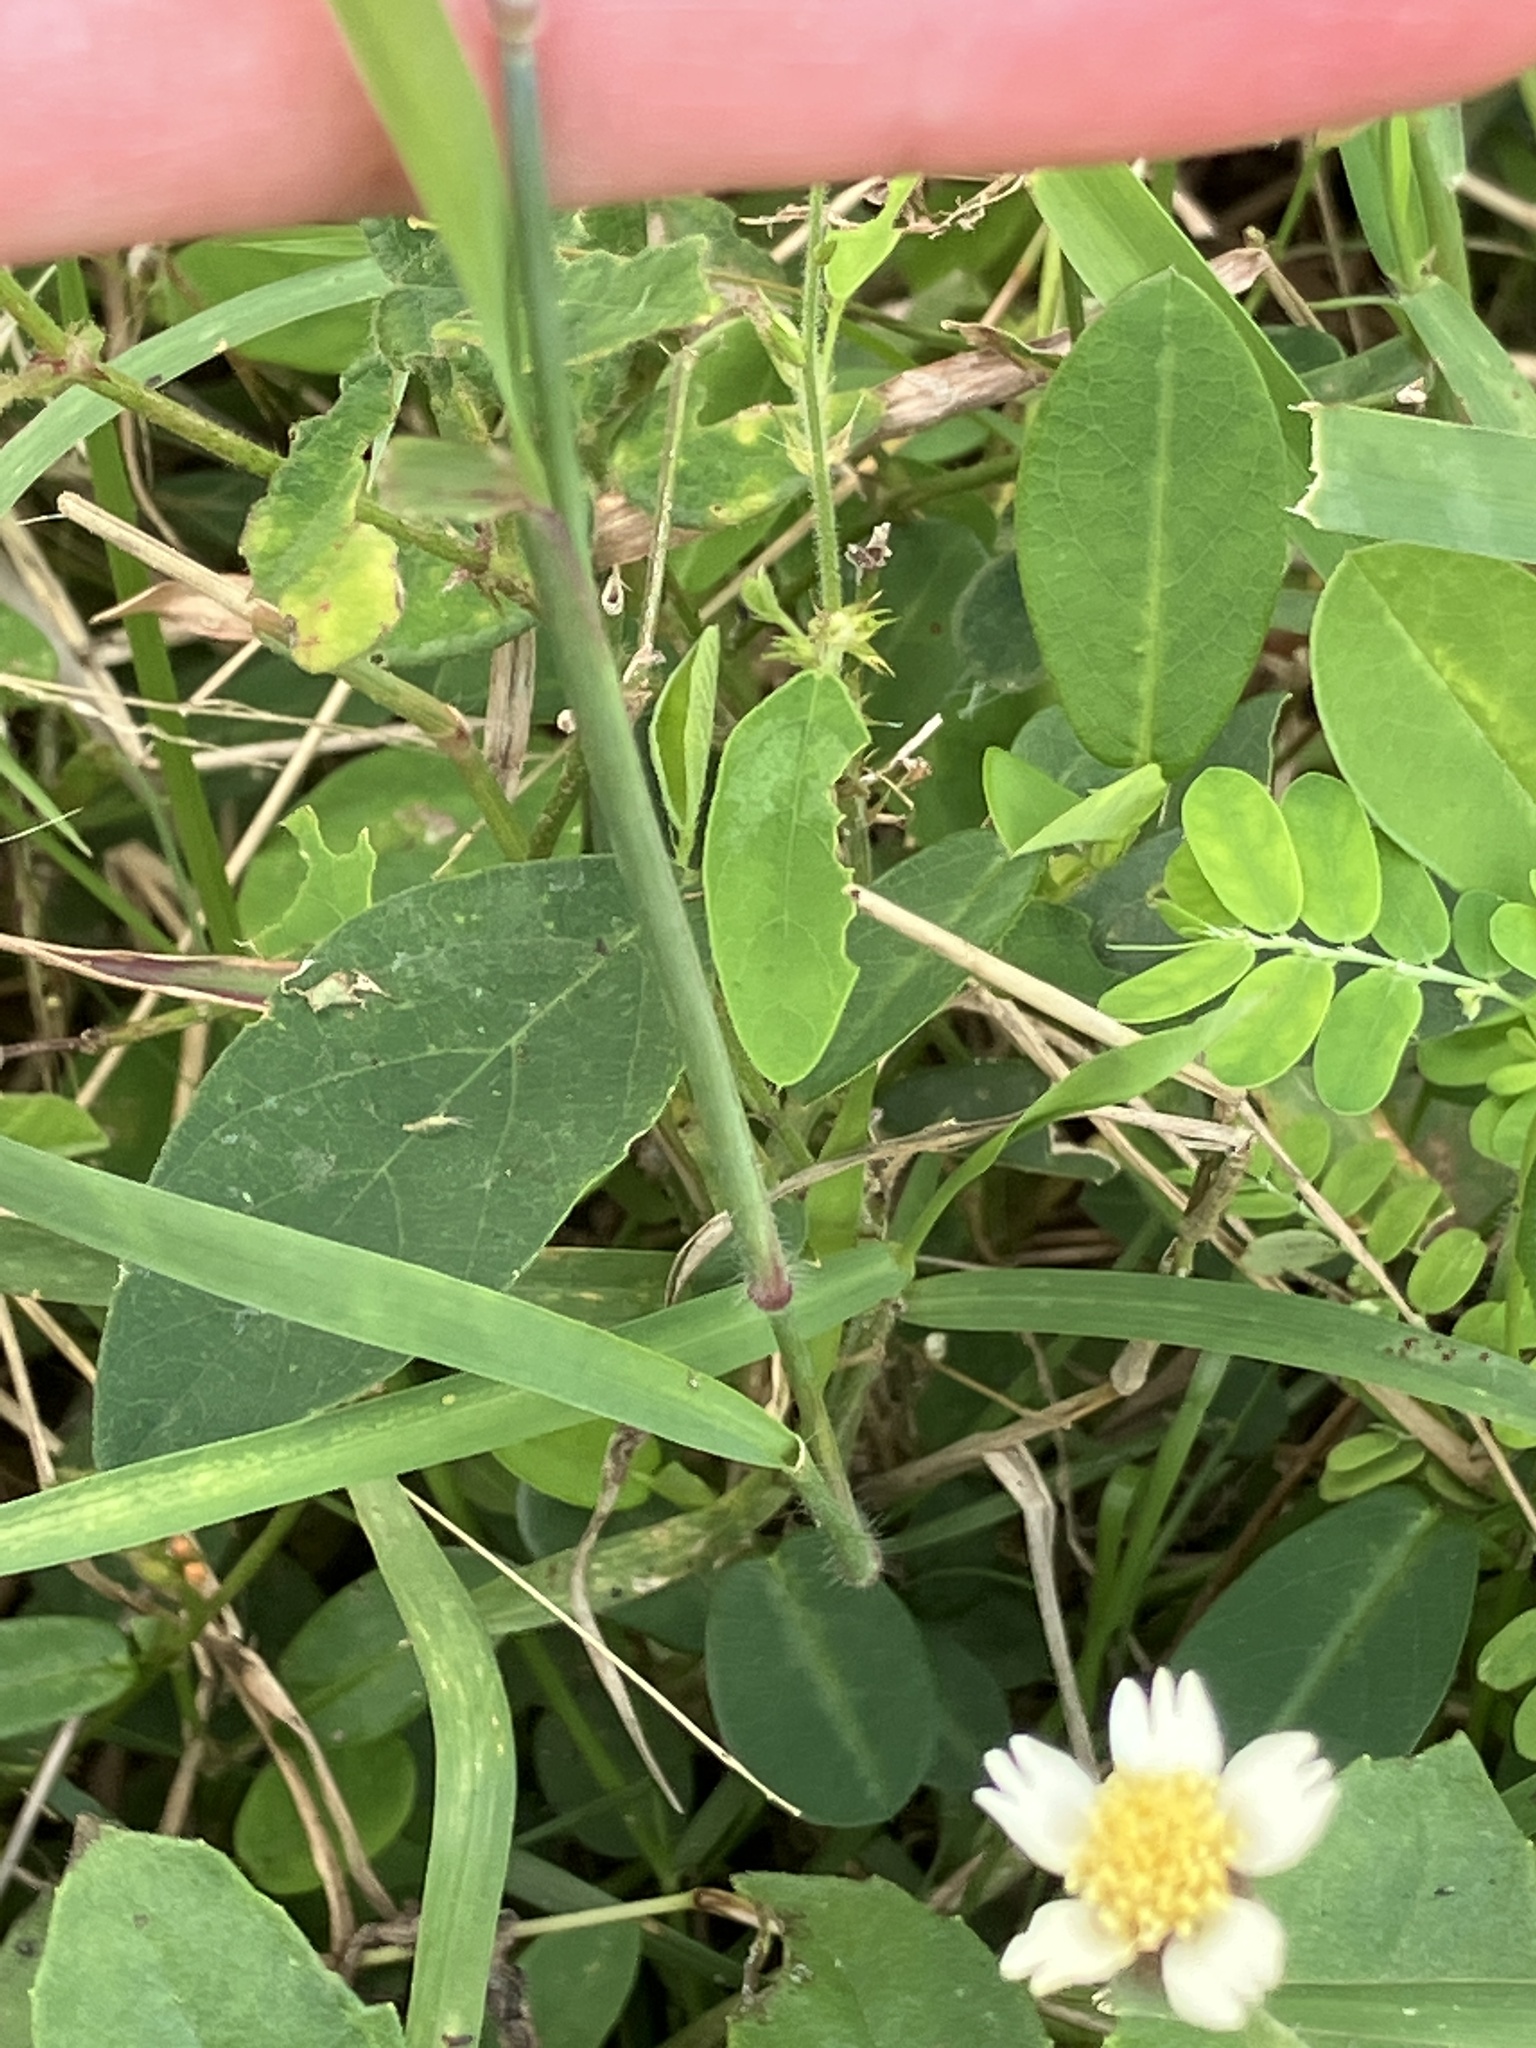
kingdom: Plantae
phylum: Tracheophyta
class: Liliopsida
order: Poales
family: Poaceae
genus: Melinis
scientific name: Melinis repens
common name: Rose natal grass
